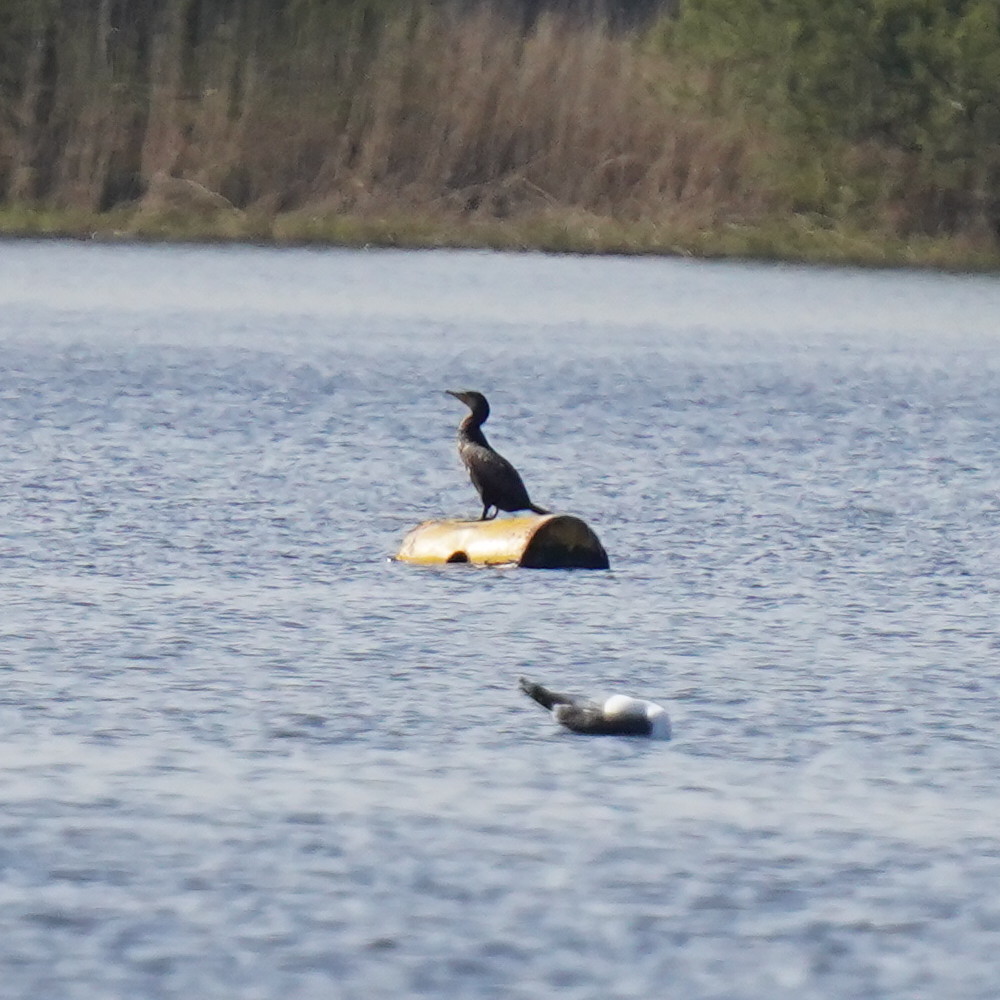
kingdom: Animalia
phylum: Chordata
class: Aves
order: Suliformes
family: Phalacrocoracidae
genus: Phalacrocorax
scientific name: Phalacrocorax carbo
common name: Great cormorant
